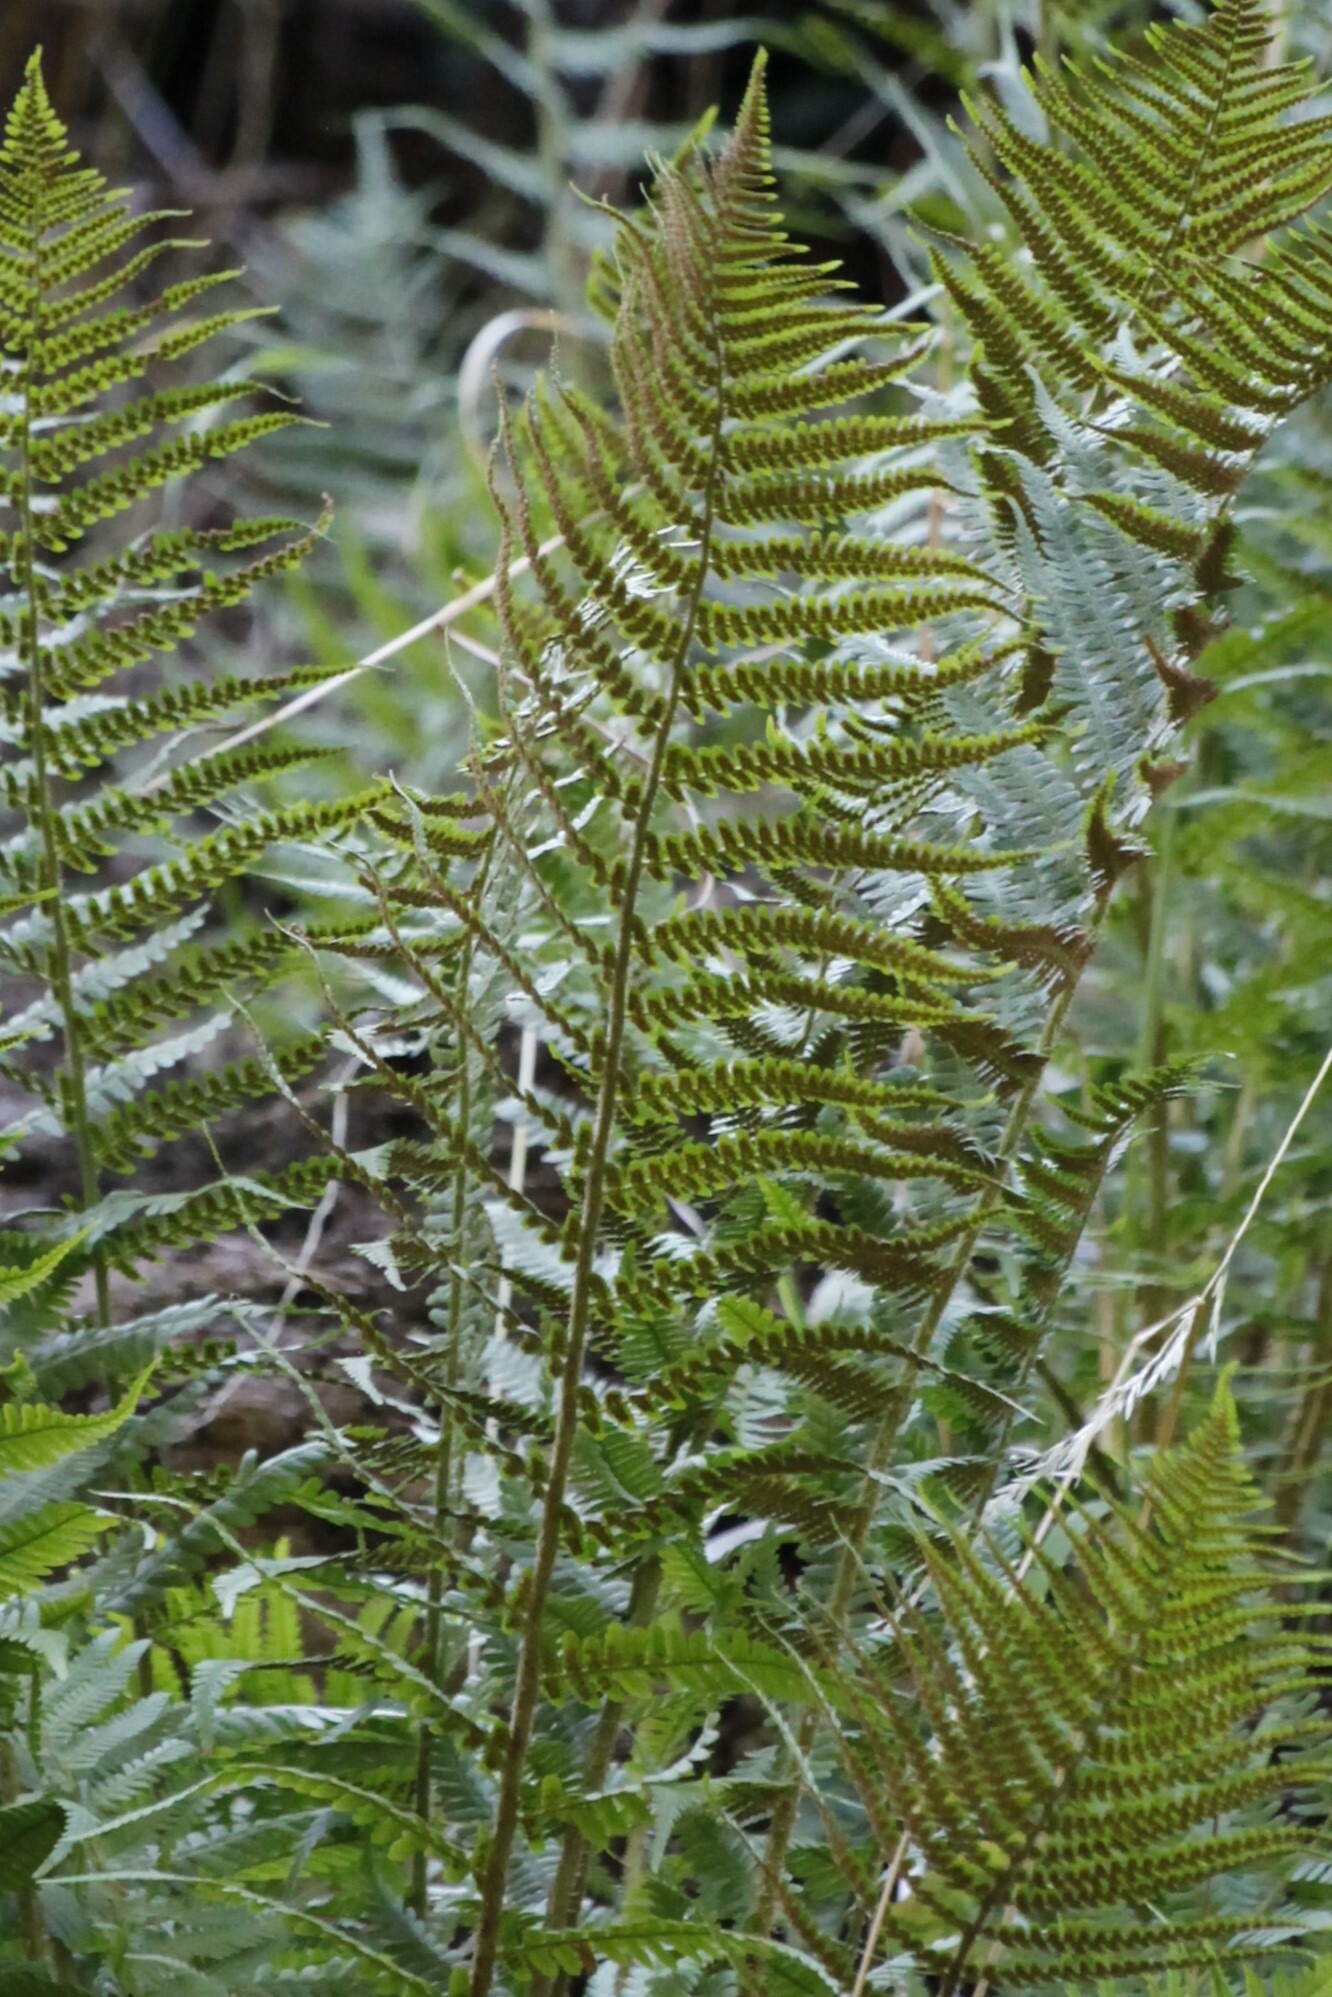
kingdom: Plantae
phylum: Tracheophyta
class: Polypodiopsida
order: Polypodiales
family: Dryopteridaceae
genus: Dryopteris
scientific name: Dryopteris filix-mas
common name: Male fern
